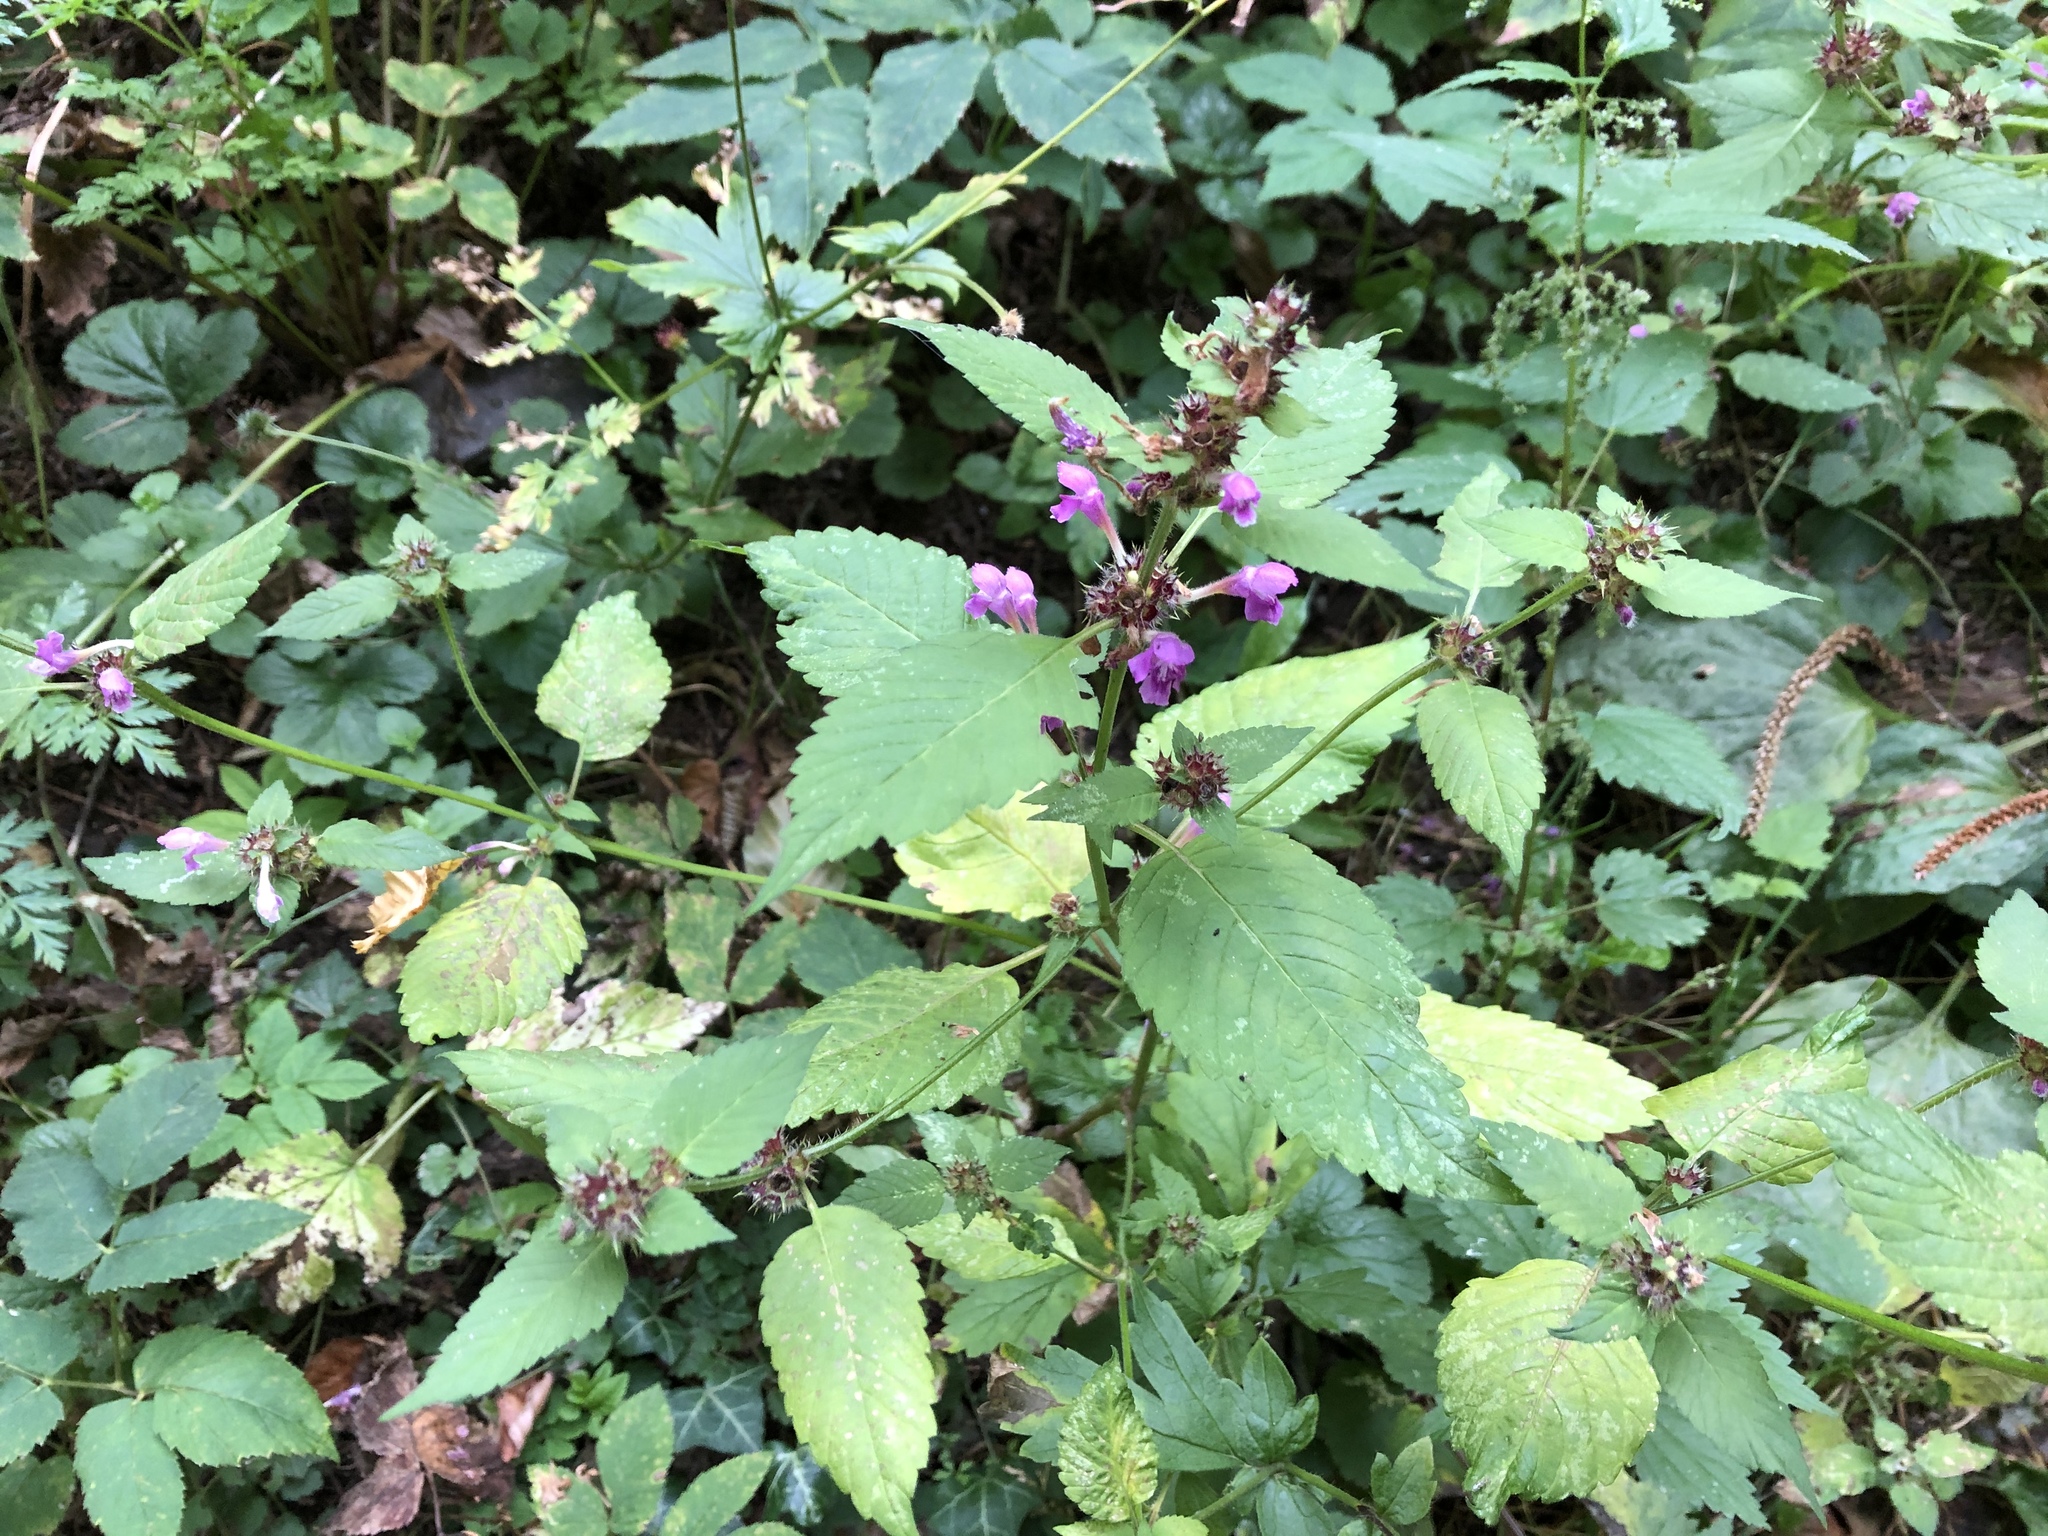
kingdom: Plantae
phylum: Tracheophyta
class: Magnoliopsida
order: Lamiales
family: Lamiaceae
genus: Galeopsis
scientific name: Galeopsis pubescens
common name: Downy hemp-nettle
